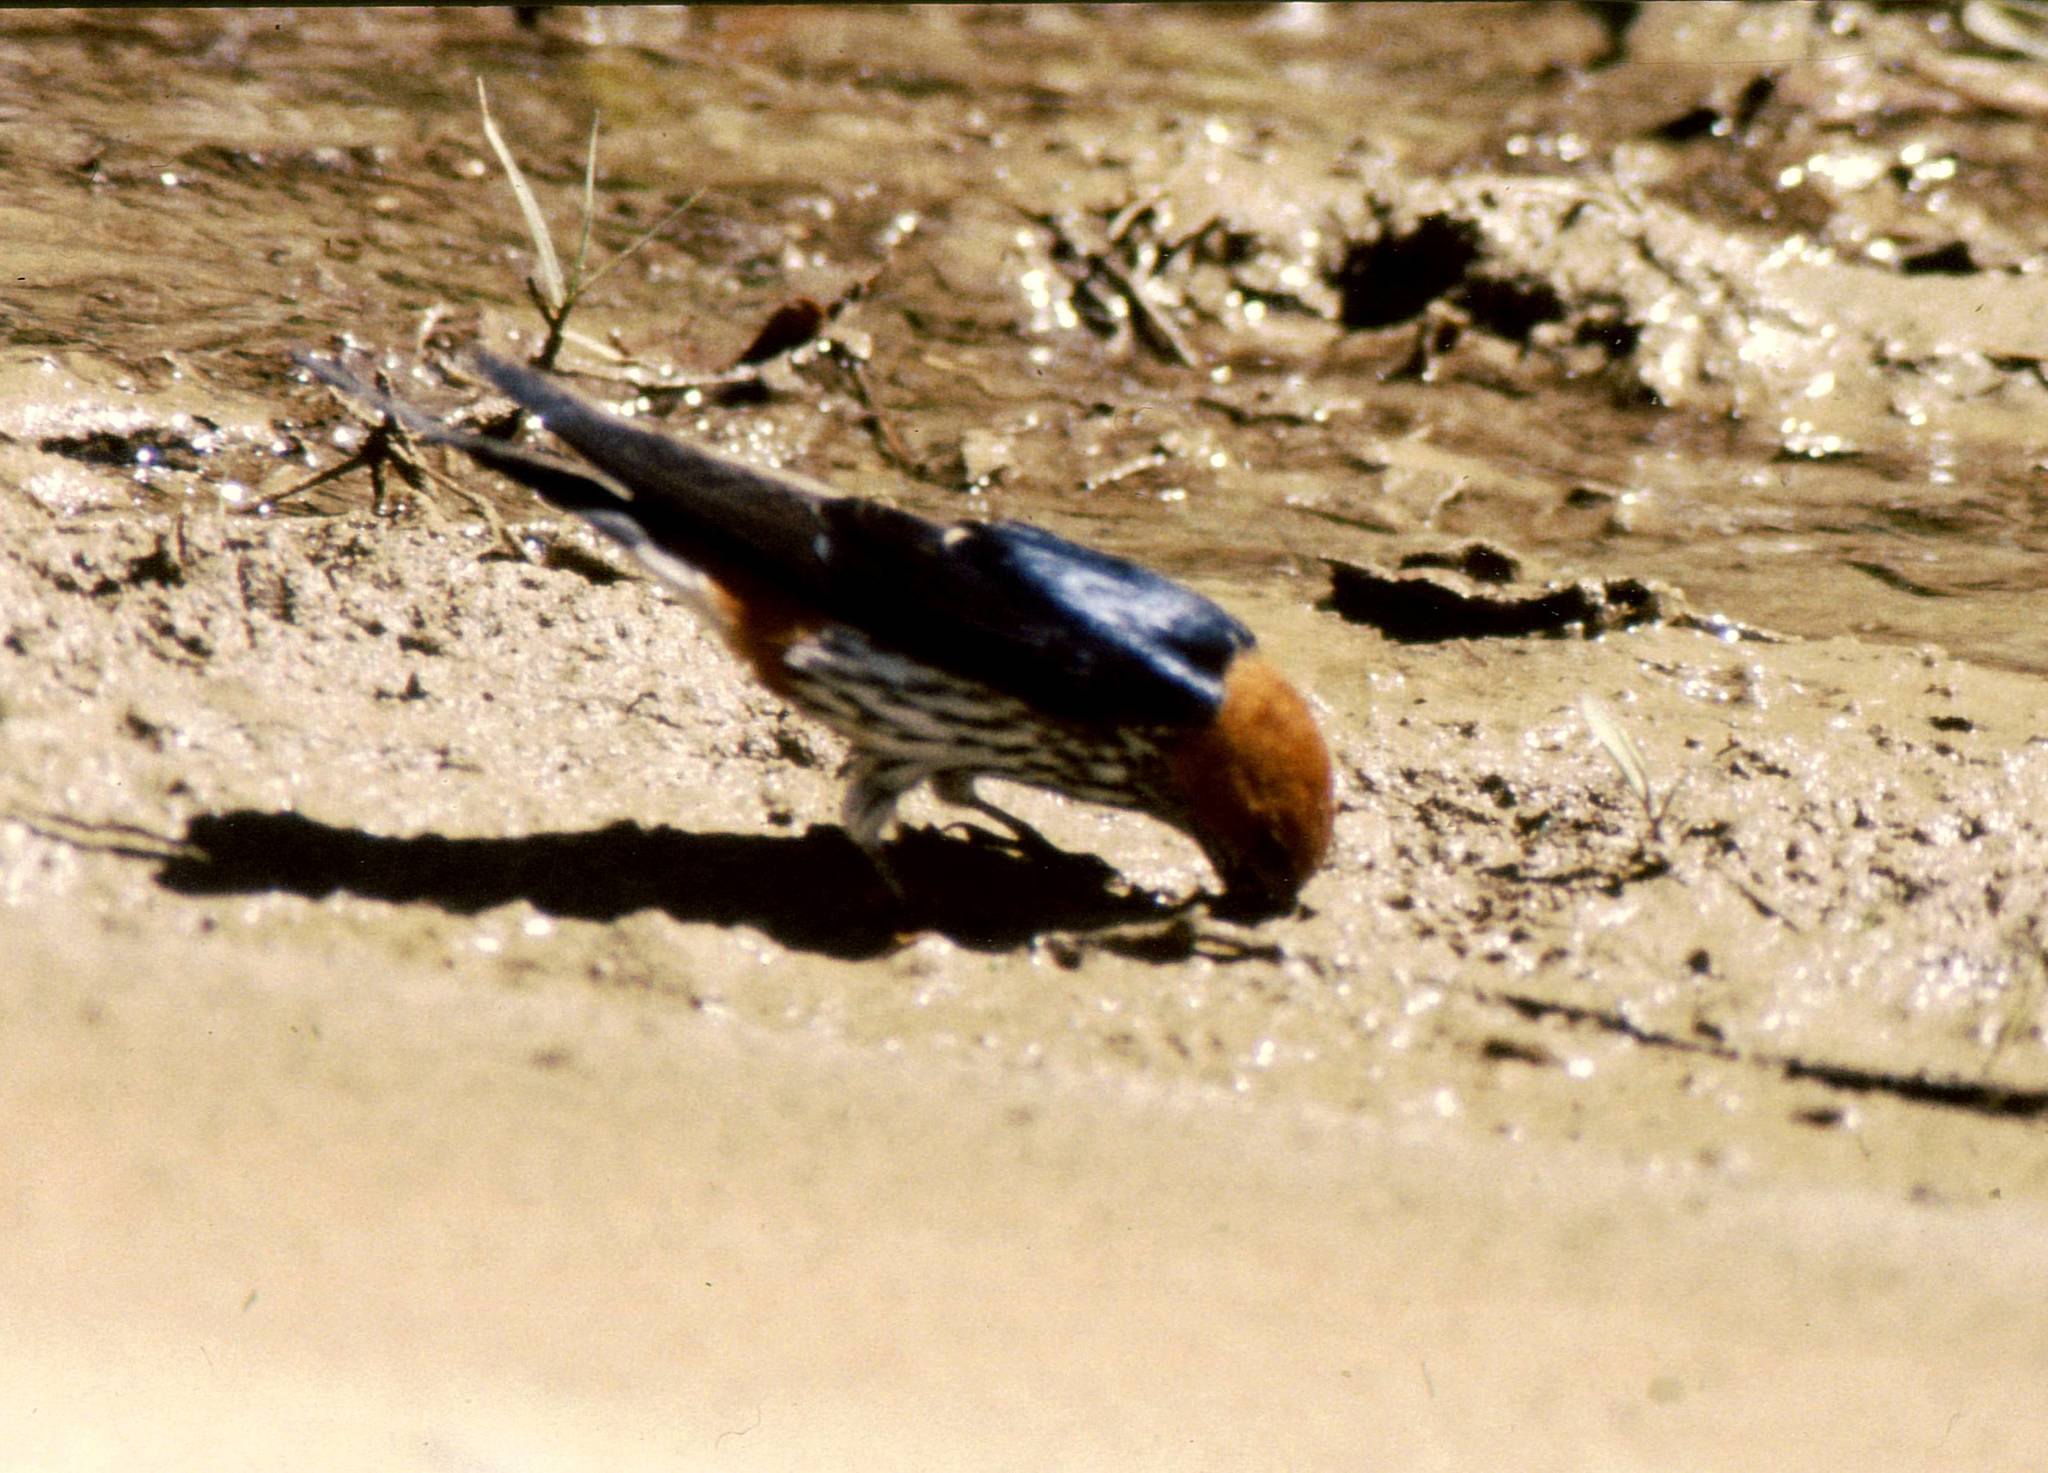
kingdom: Animalia
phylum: Chordata
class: Aves
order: Passeriformes
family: Hirundinidae
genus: Cecropis
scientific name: Cecropis abyssinica
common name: Lesser striped-swallow
